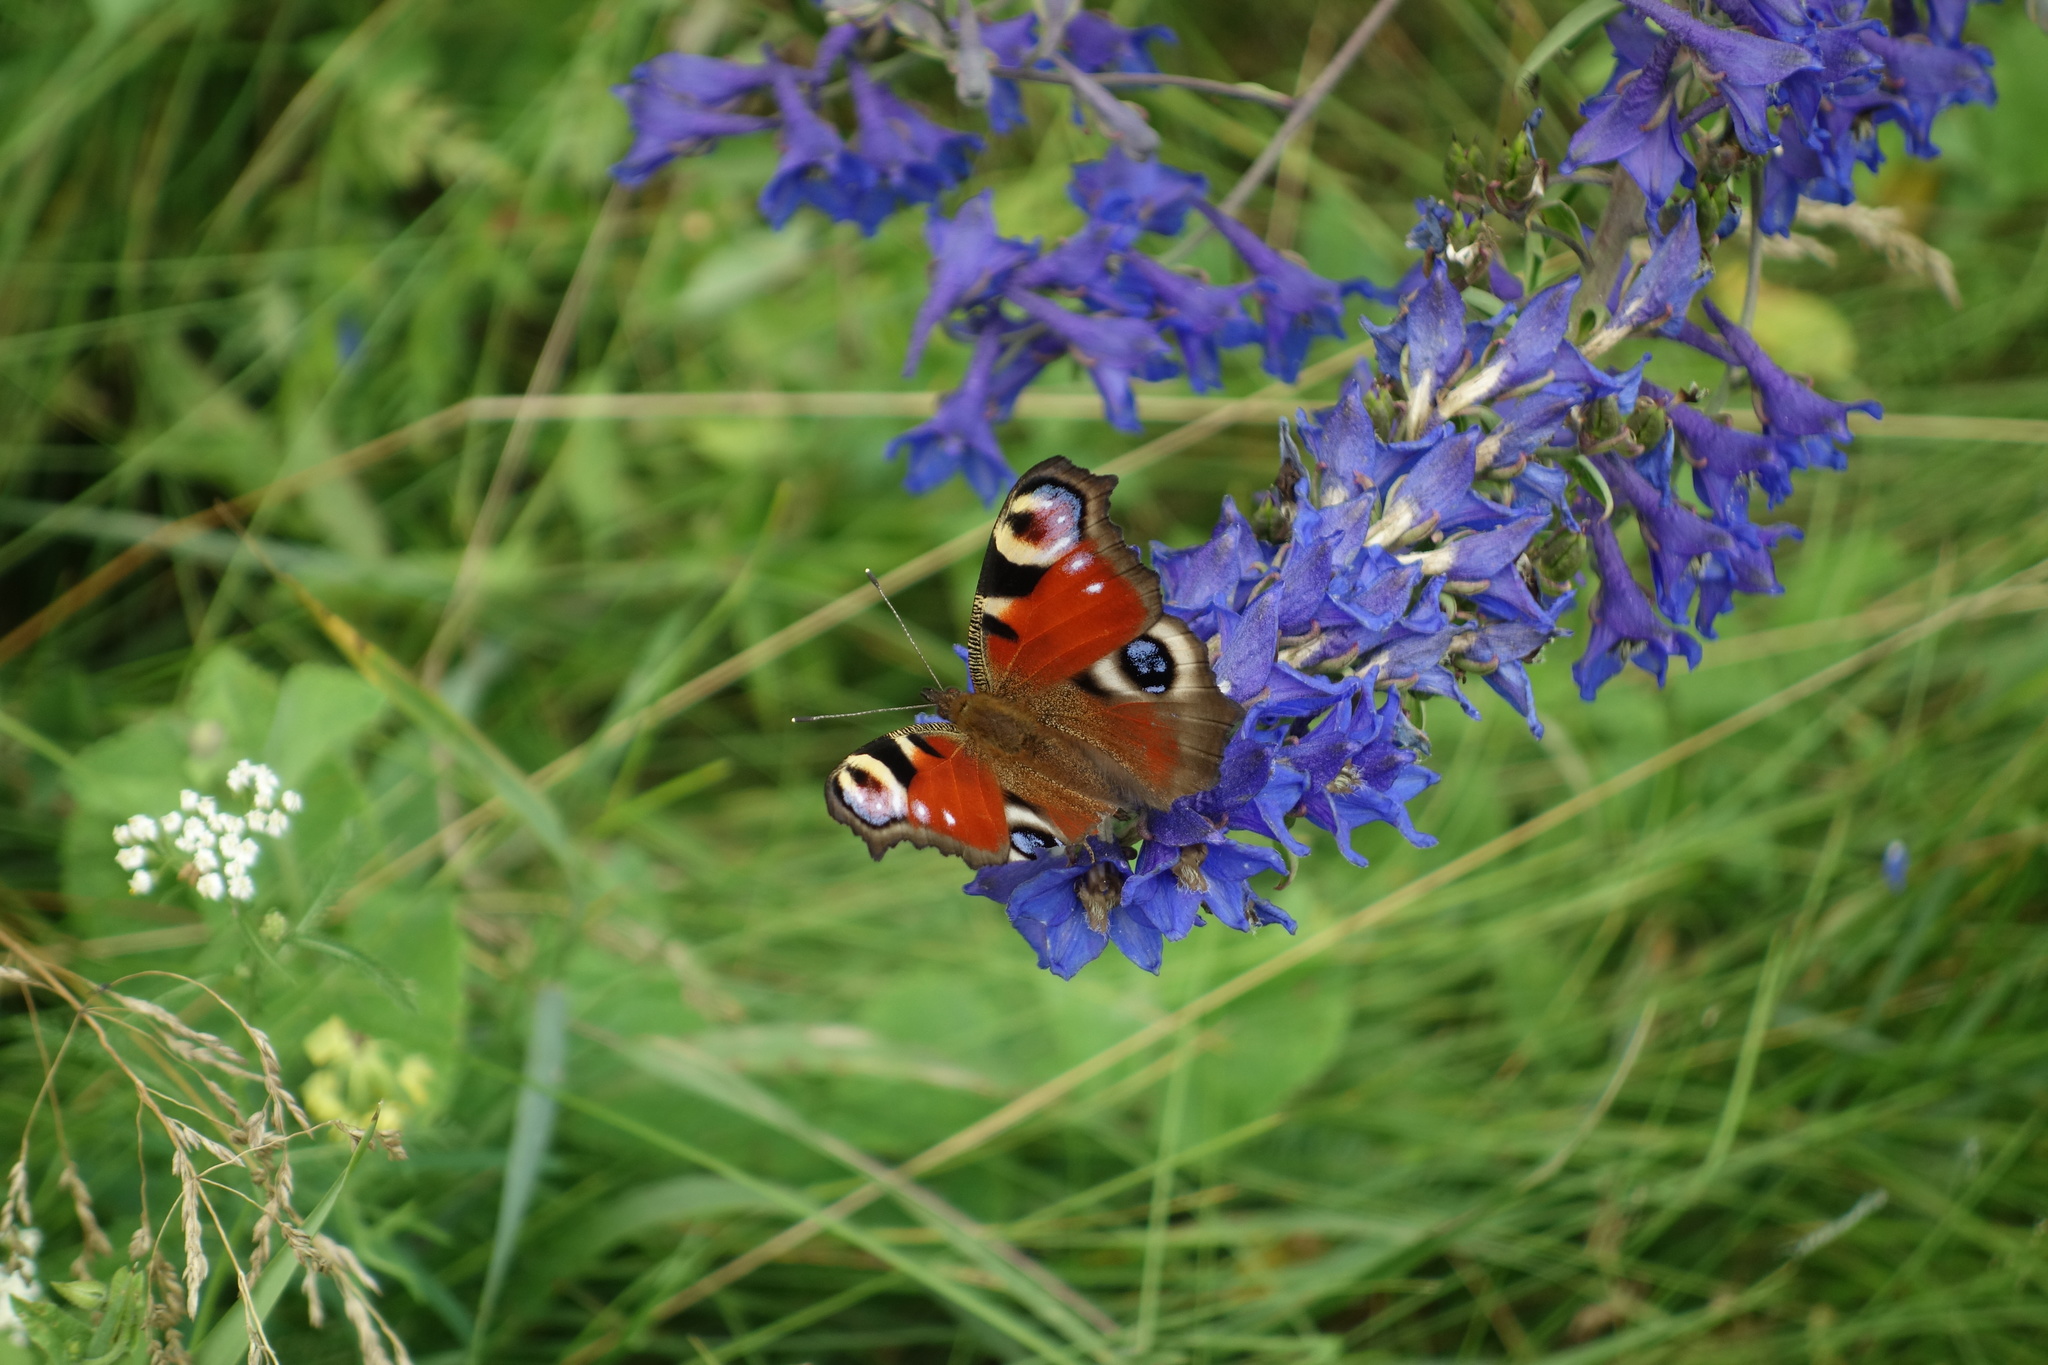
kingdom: Animalia
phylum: Arthropoda
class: Insecta
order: Lepidoptera
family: Nymphalidae
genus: Aglais
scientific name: Aglais io
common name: Peacock
